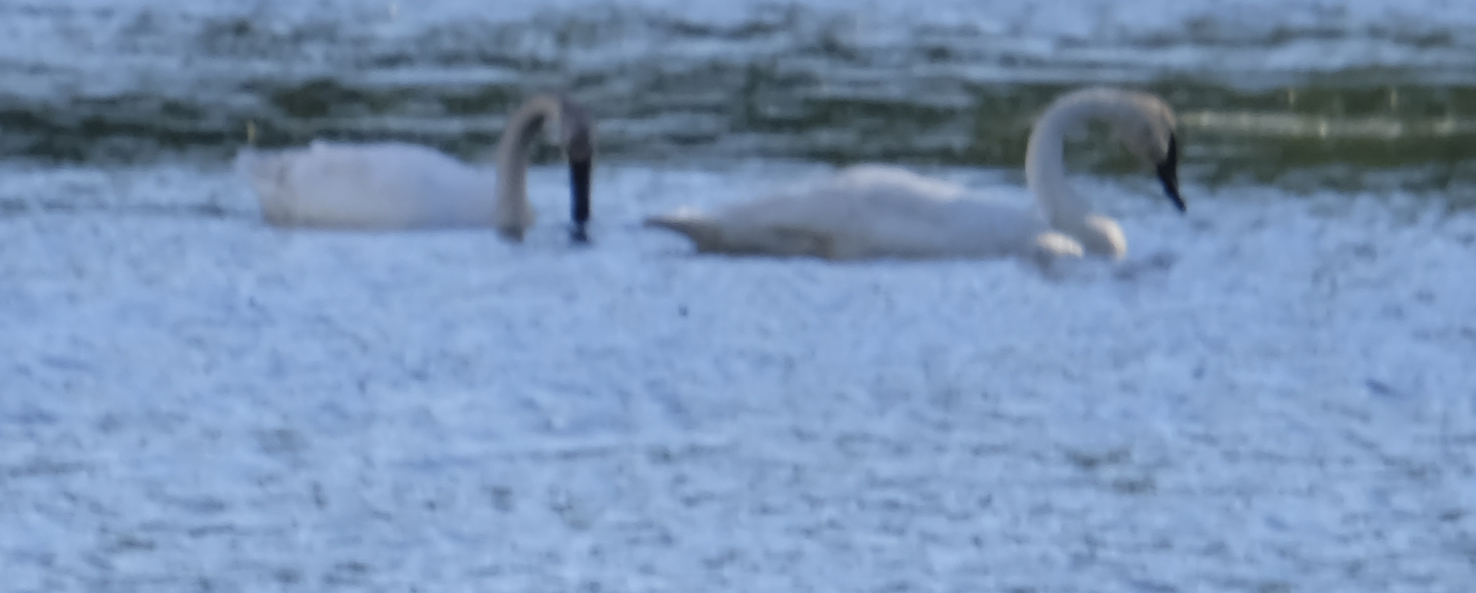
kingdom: Animalia
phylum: Chordata
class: Aves
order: Anseriformes
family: Anatidae
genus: Cygnus
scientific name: Cygnus buccinator
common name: Trumpeter swan
